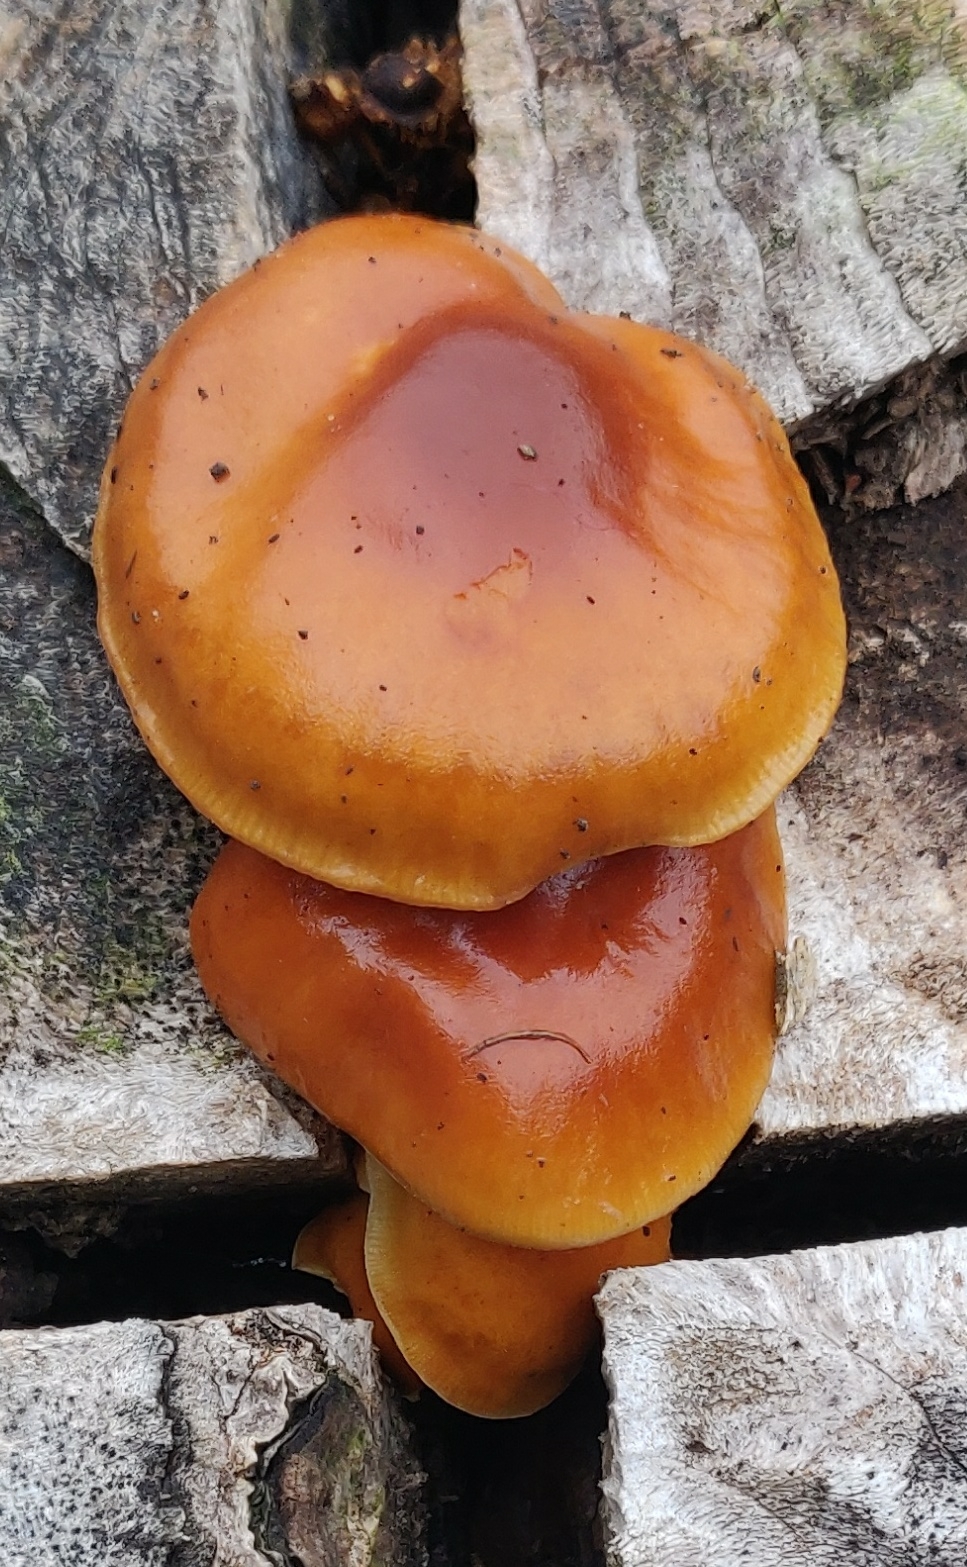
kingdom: Fungi
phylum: Basidiomycota
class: Agaricomycetes
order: Agaricales
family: Physalacriaceae
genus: Flammulina
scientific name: Flammulina velutipes
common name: Velvet shank
